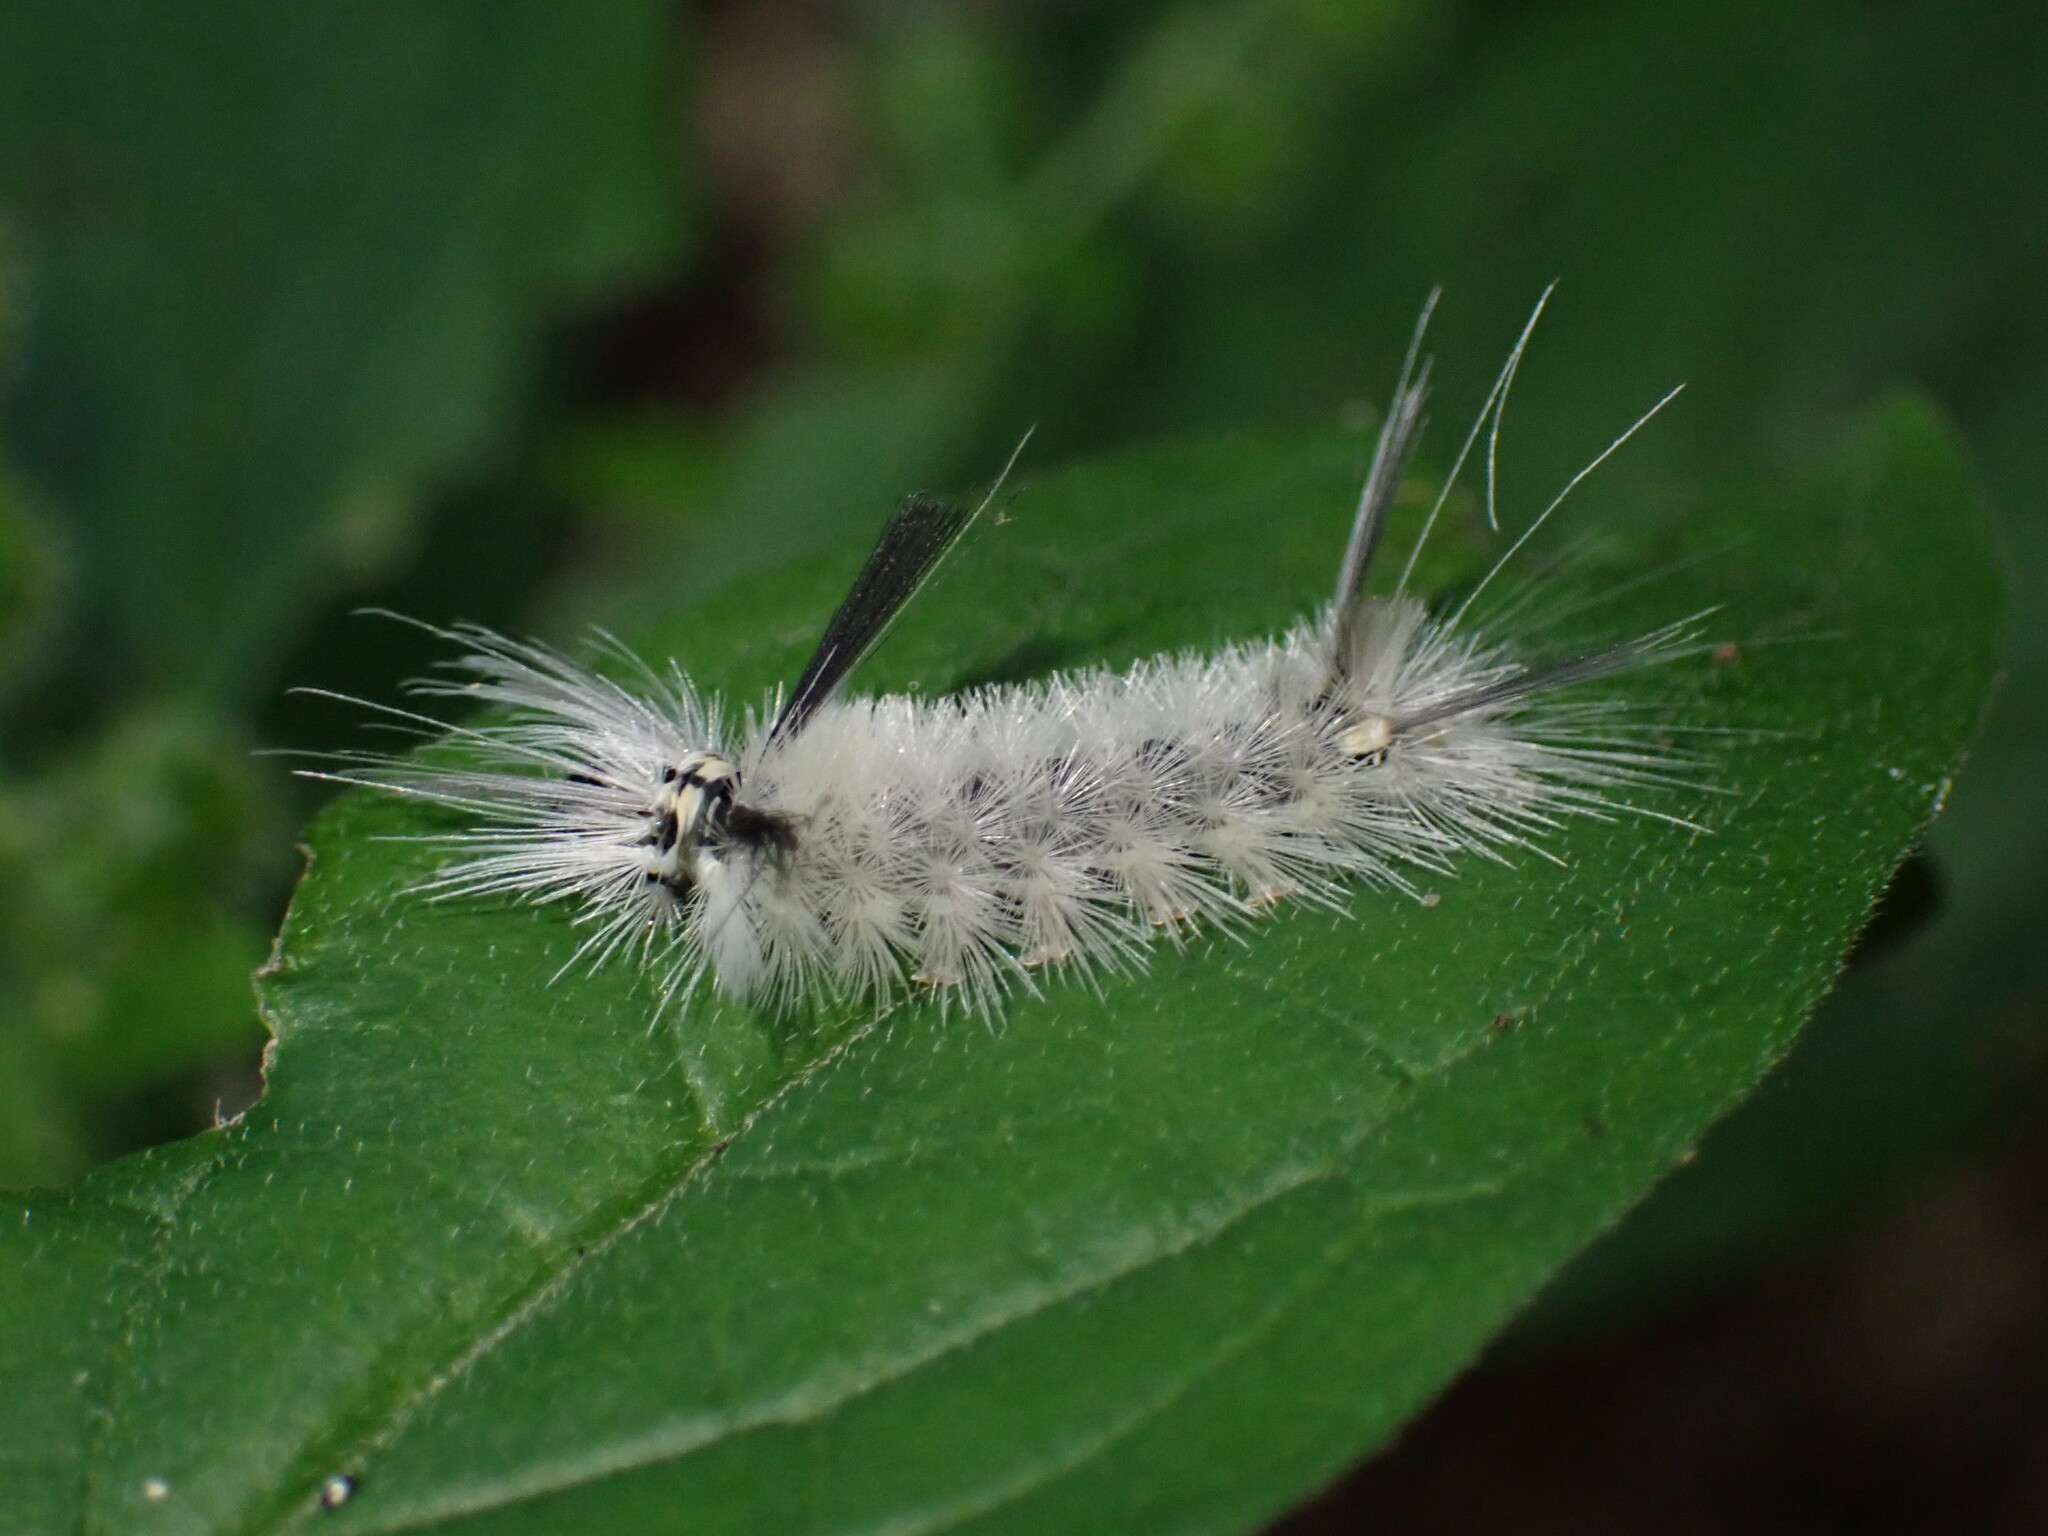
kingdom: Animalia
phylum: Arthropoda
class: Insecta
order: Lepidoptera
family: Erebidae
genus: Halysidota
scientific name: Halysidota tessellaris
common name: Banded tussock moth
